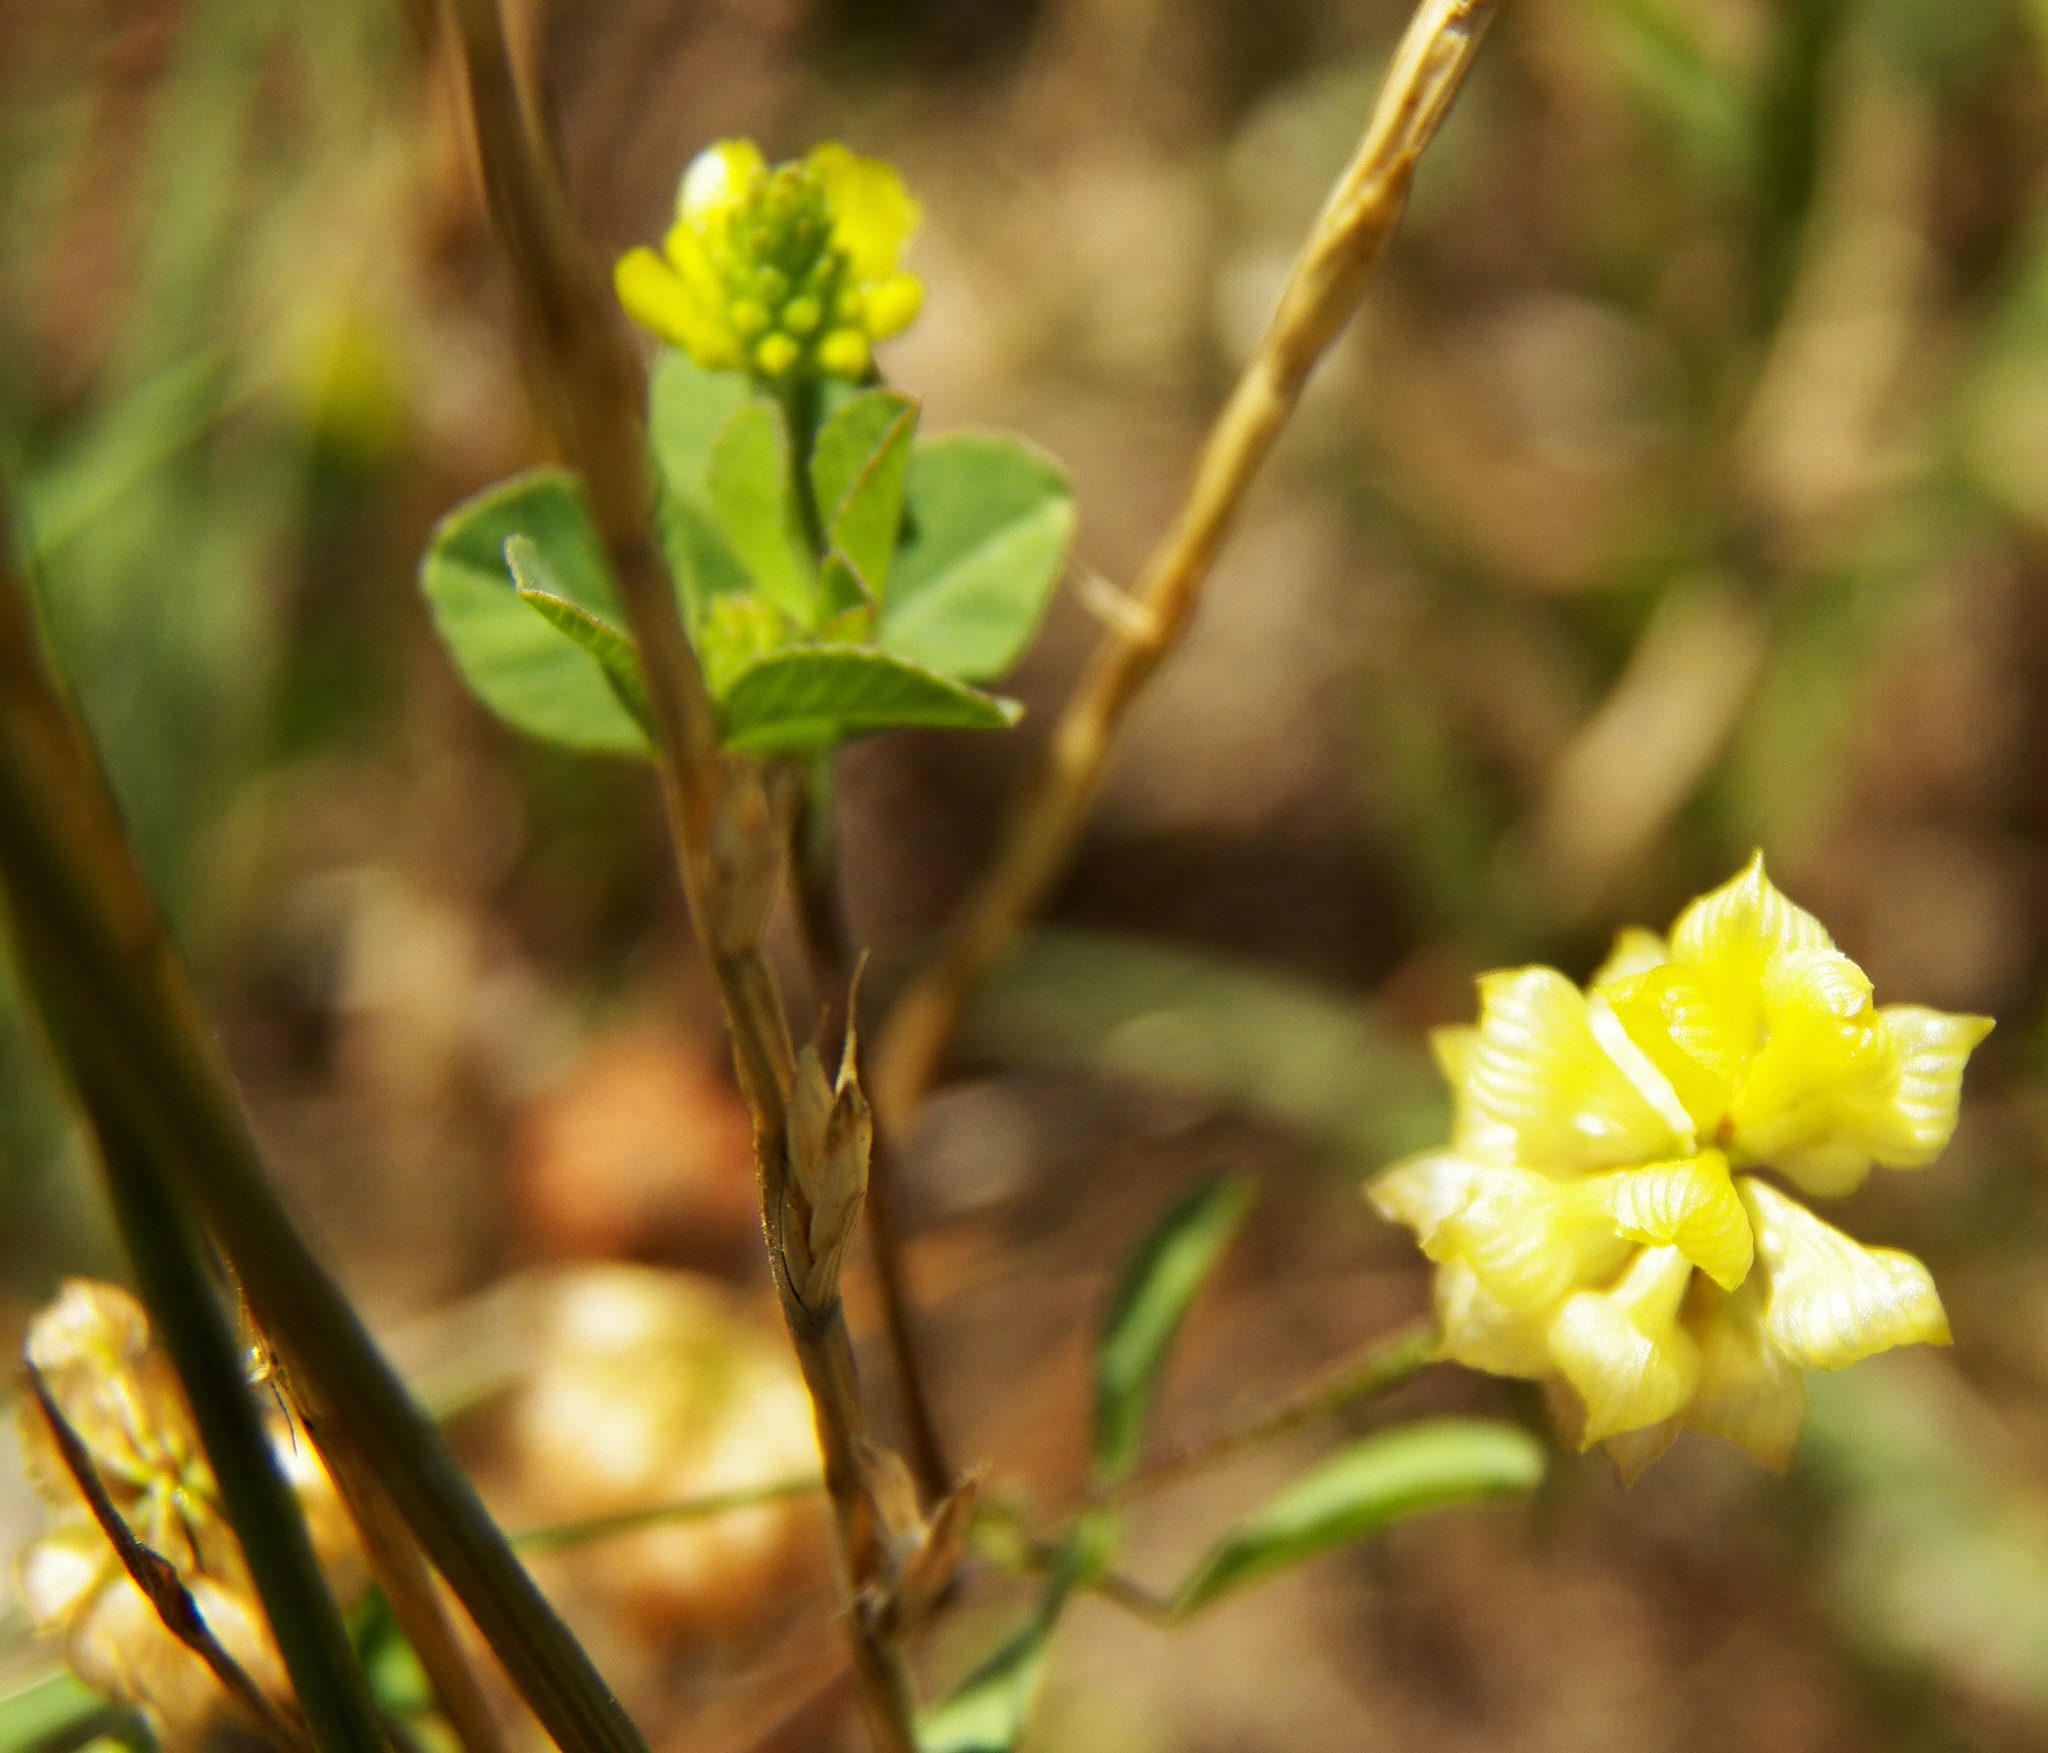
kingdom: Plantae
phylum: Tracheophyta
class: Magnoliopsida
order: Fabales
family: Fabaceae
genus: Trifolium
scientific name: Trifolium campestre
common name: Field clover
